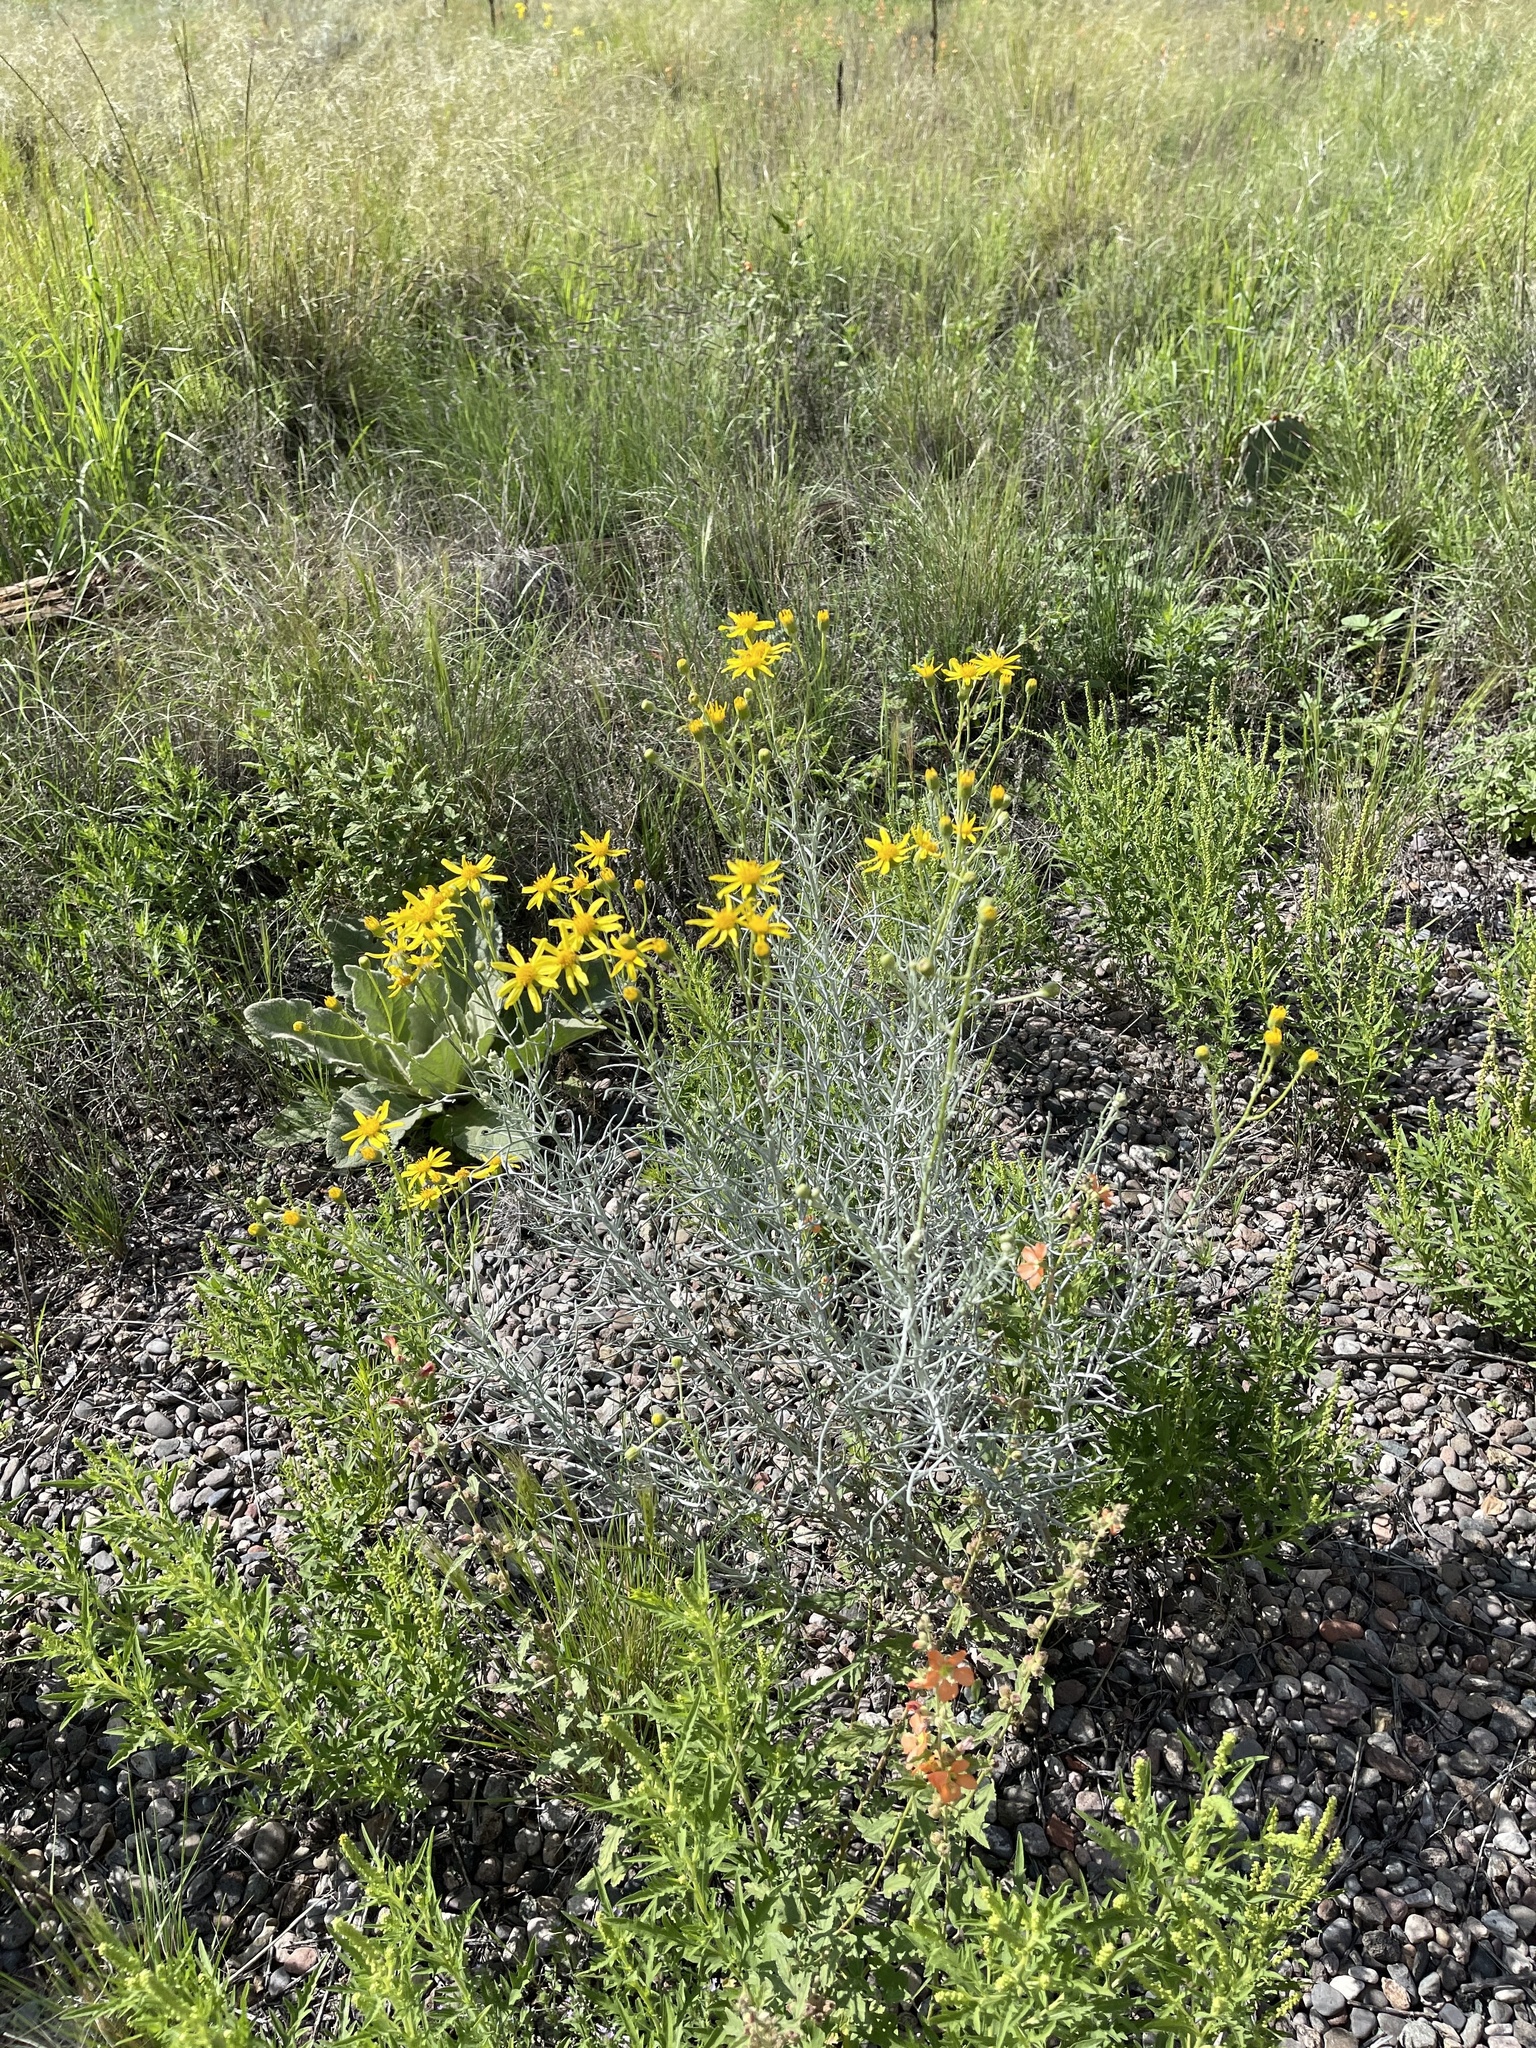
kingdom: Plantae
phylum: Tracheophyta
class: Magnoliopsida
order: Asterales
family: Asteraceae
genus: Senecio
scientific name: Senecio flaccidus
